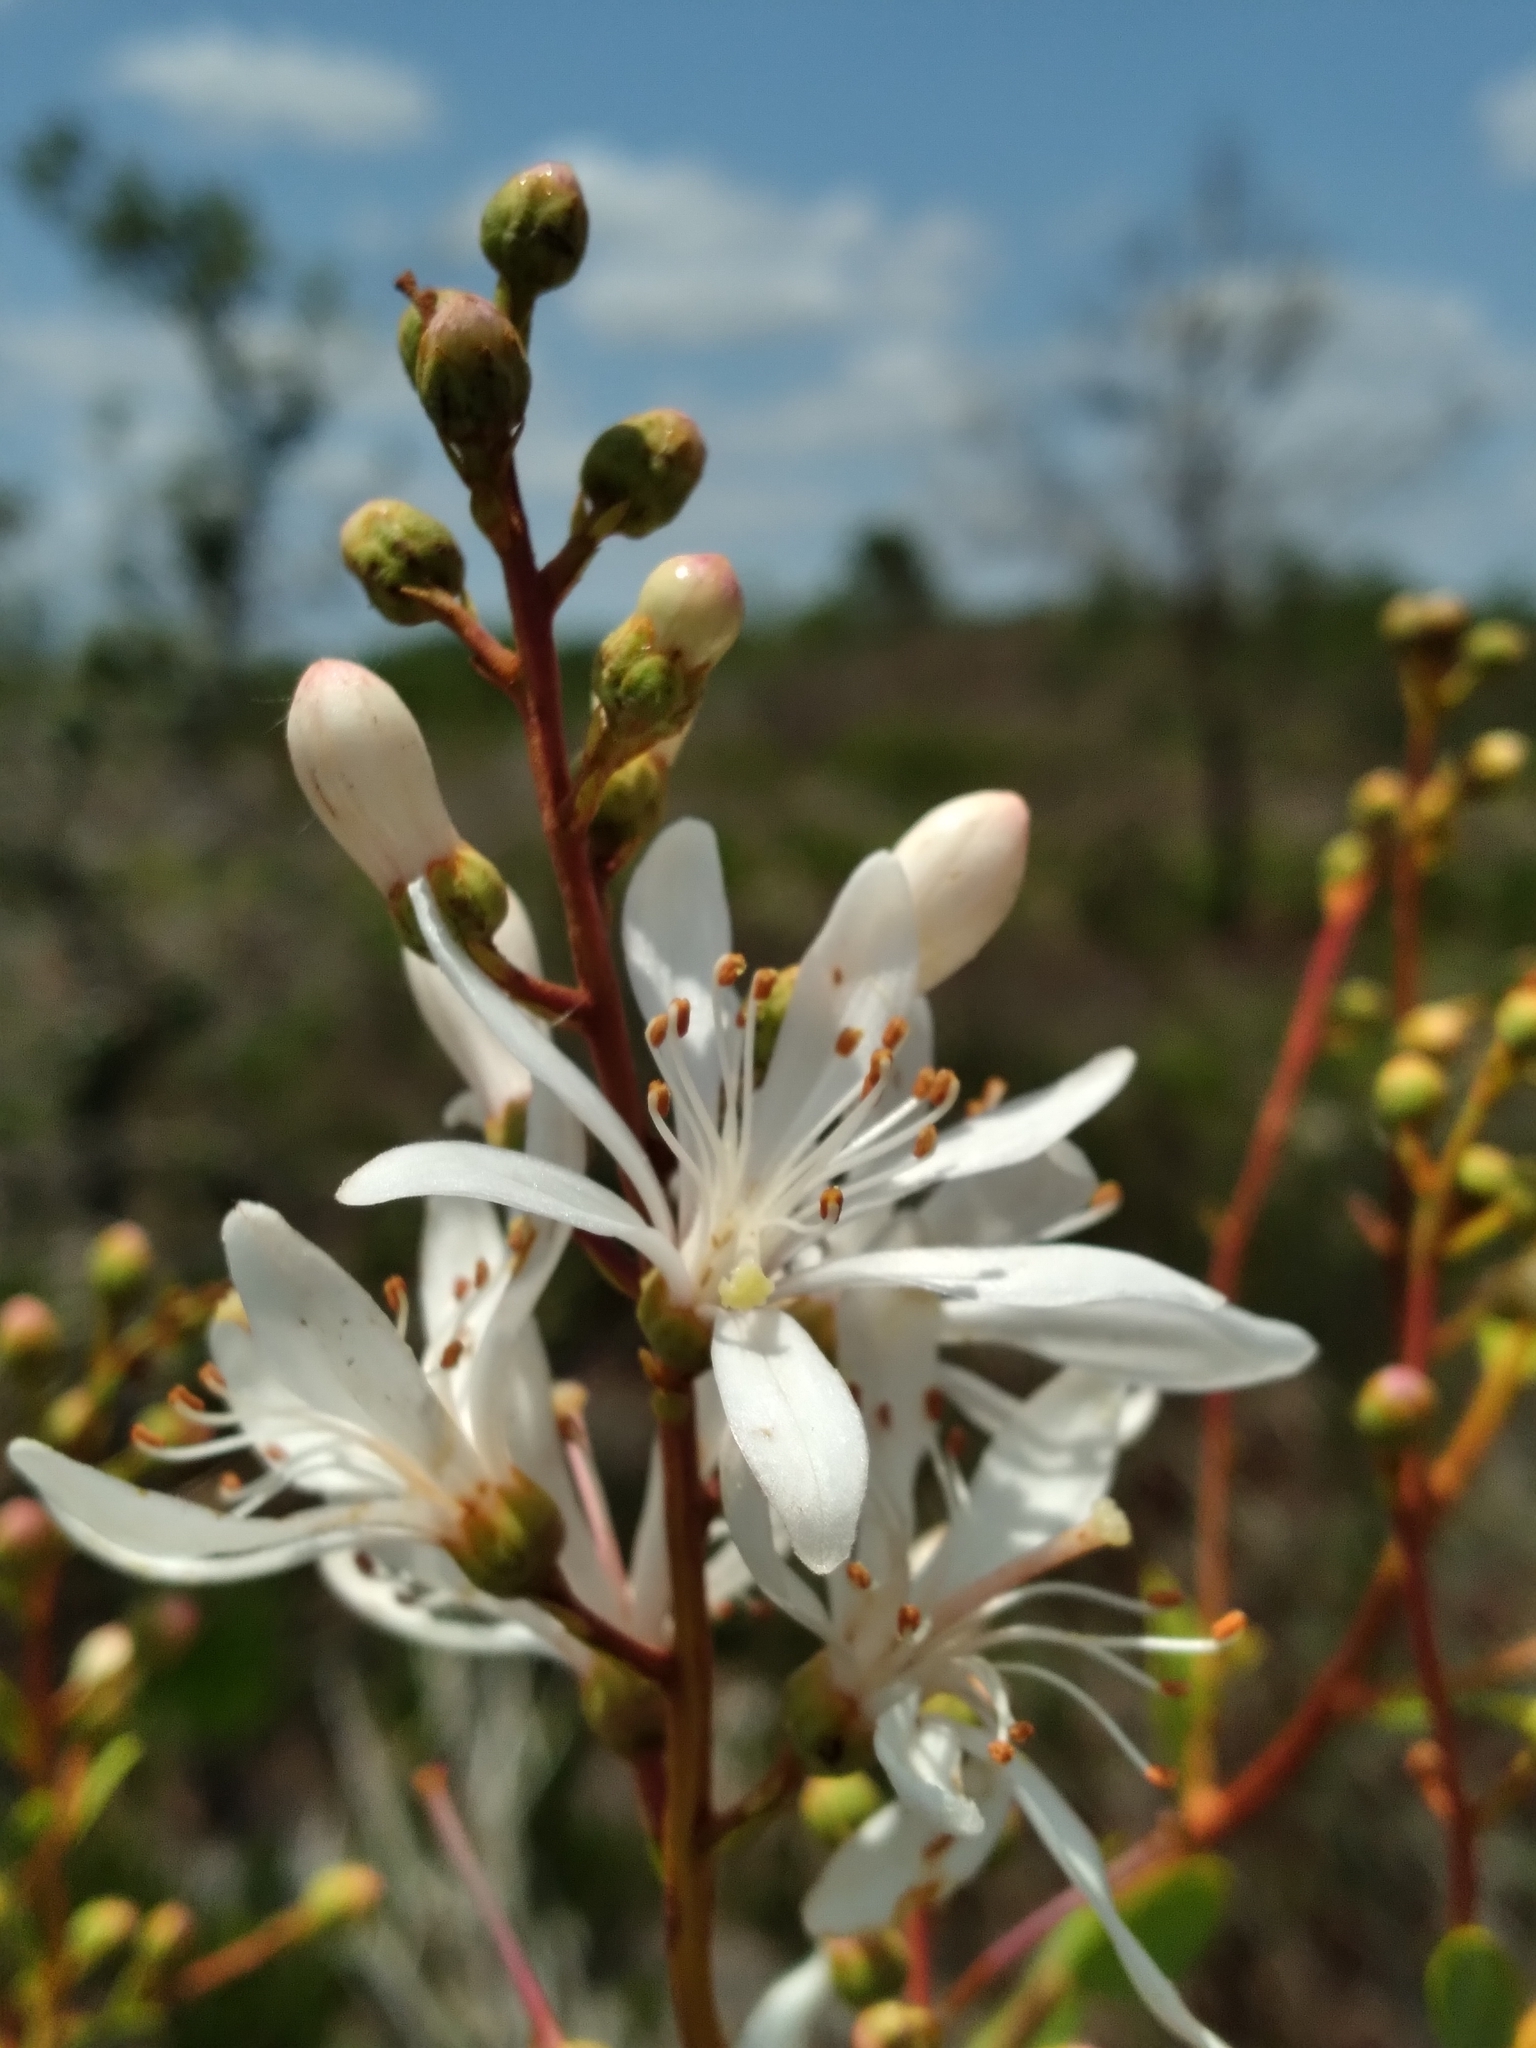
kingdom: Plantae
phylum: Tracheophyta
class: Magnoliopsida
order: Ericales
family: Ericaceae
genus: Bejaria
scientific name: Bejaria racemosa
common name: Tarflower
